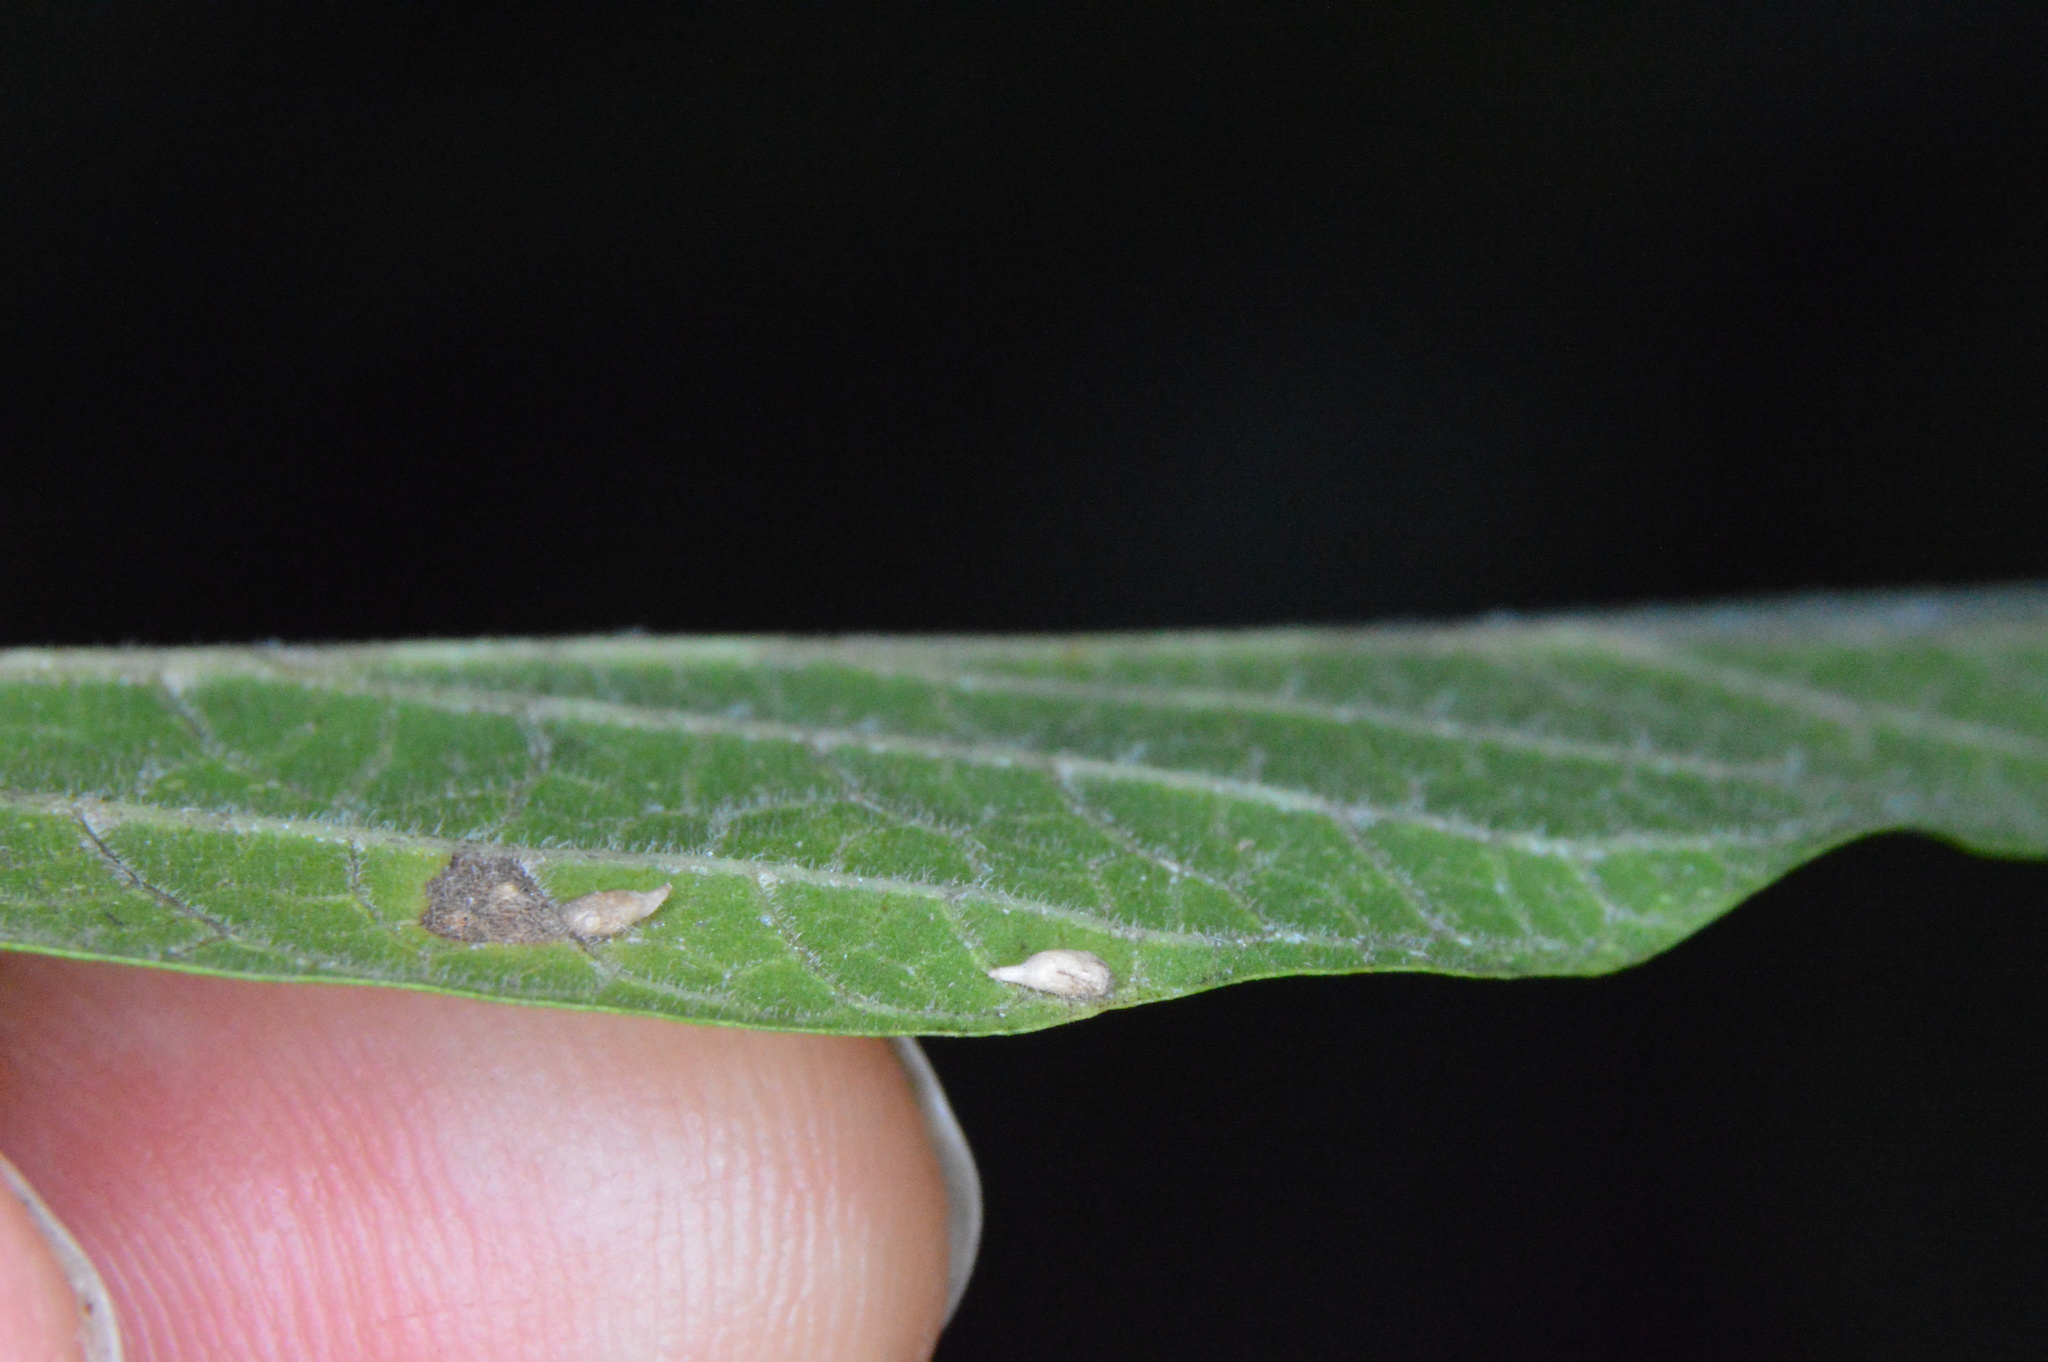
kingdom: Animalia
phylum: Arthropoda
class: Insecta
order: Diptera
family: Cecidomyiidae
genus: Celticecis
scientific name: Celticecis supina
